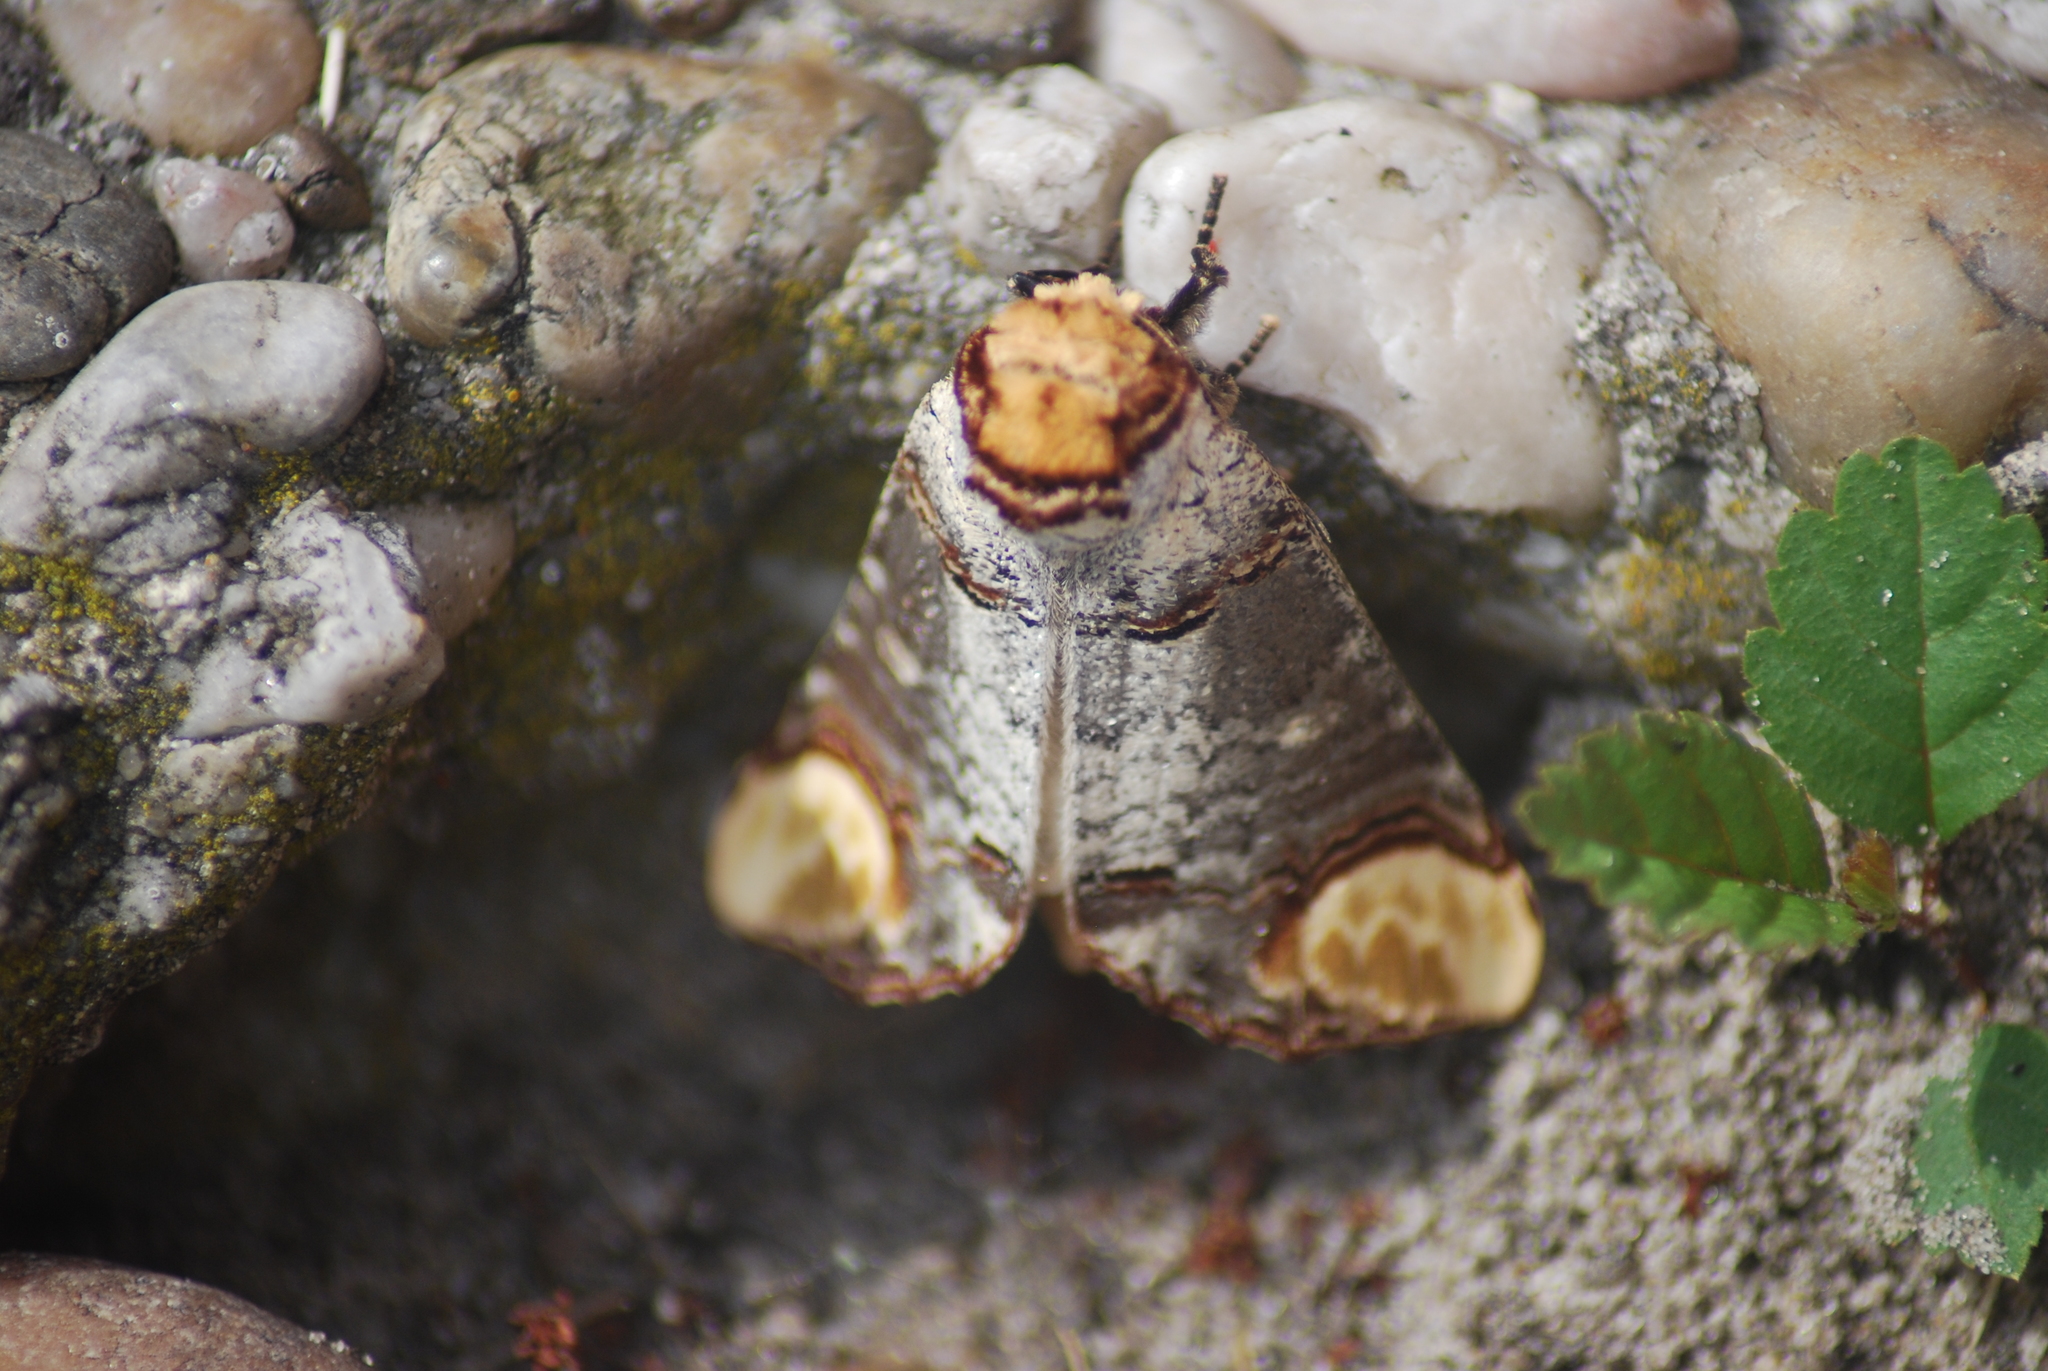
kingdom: Animalia
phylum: Arthropoda
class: Insecta
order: Lepidoptera
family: Notodontidae
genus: Phalera
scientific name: Phalera bucephala
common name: Buff-tip
